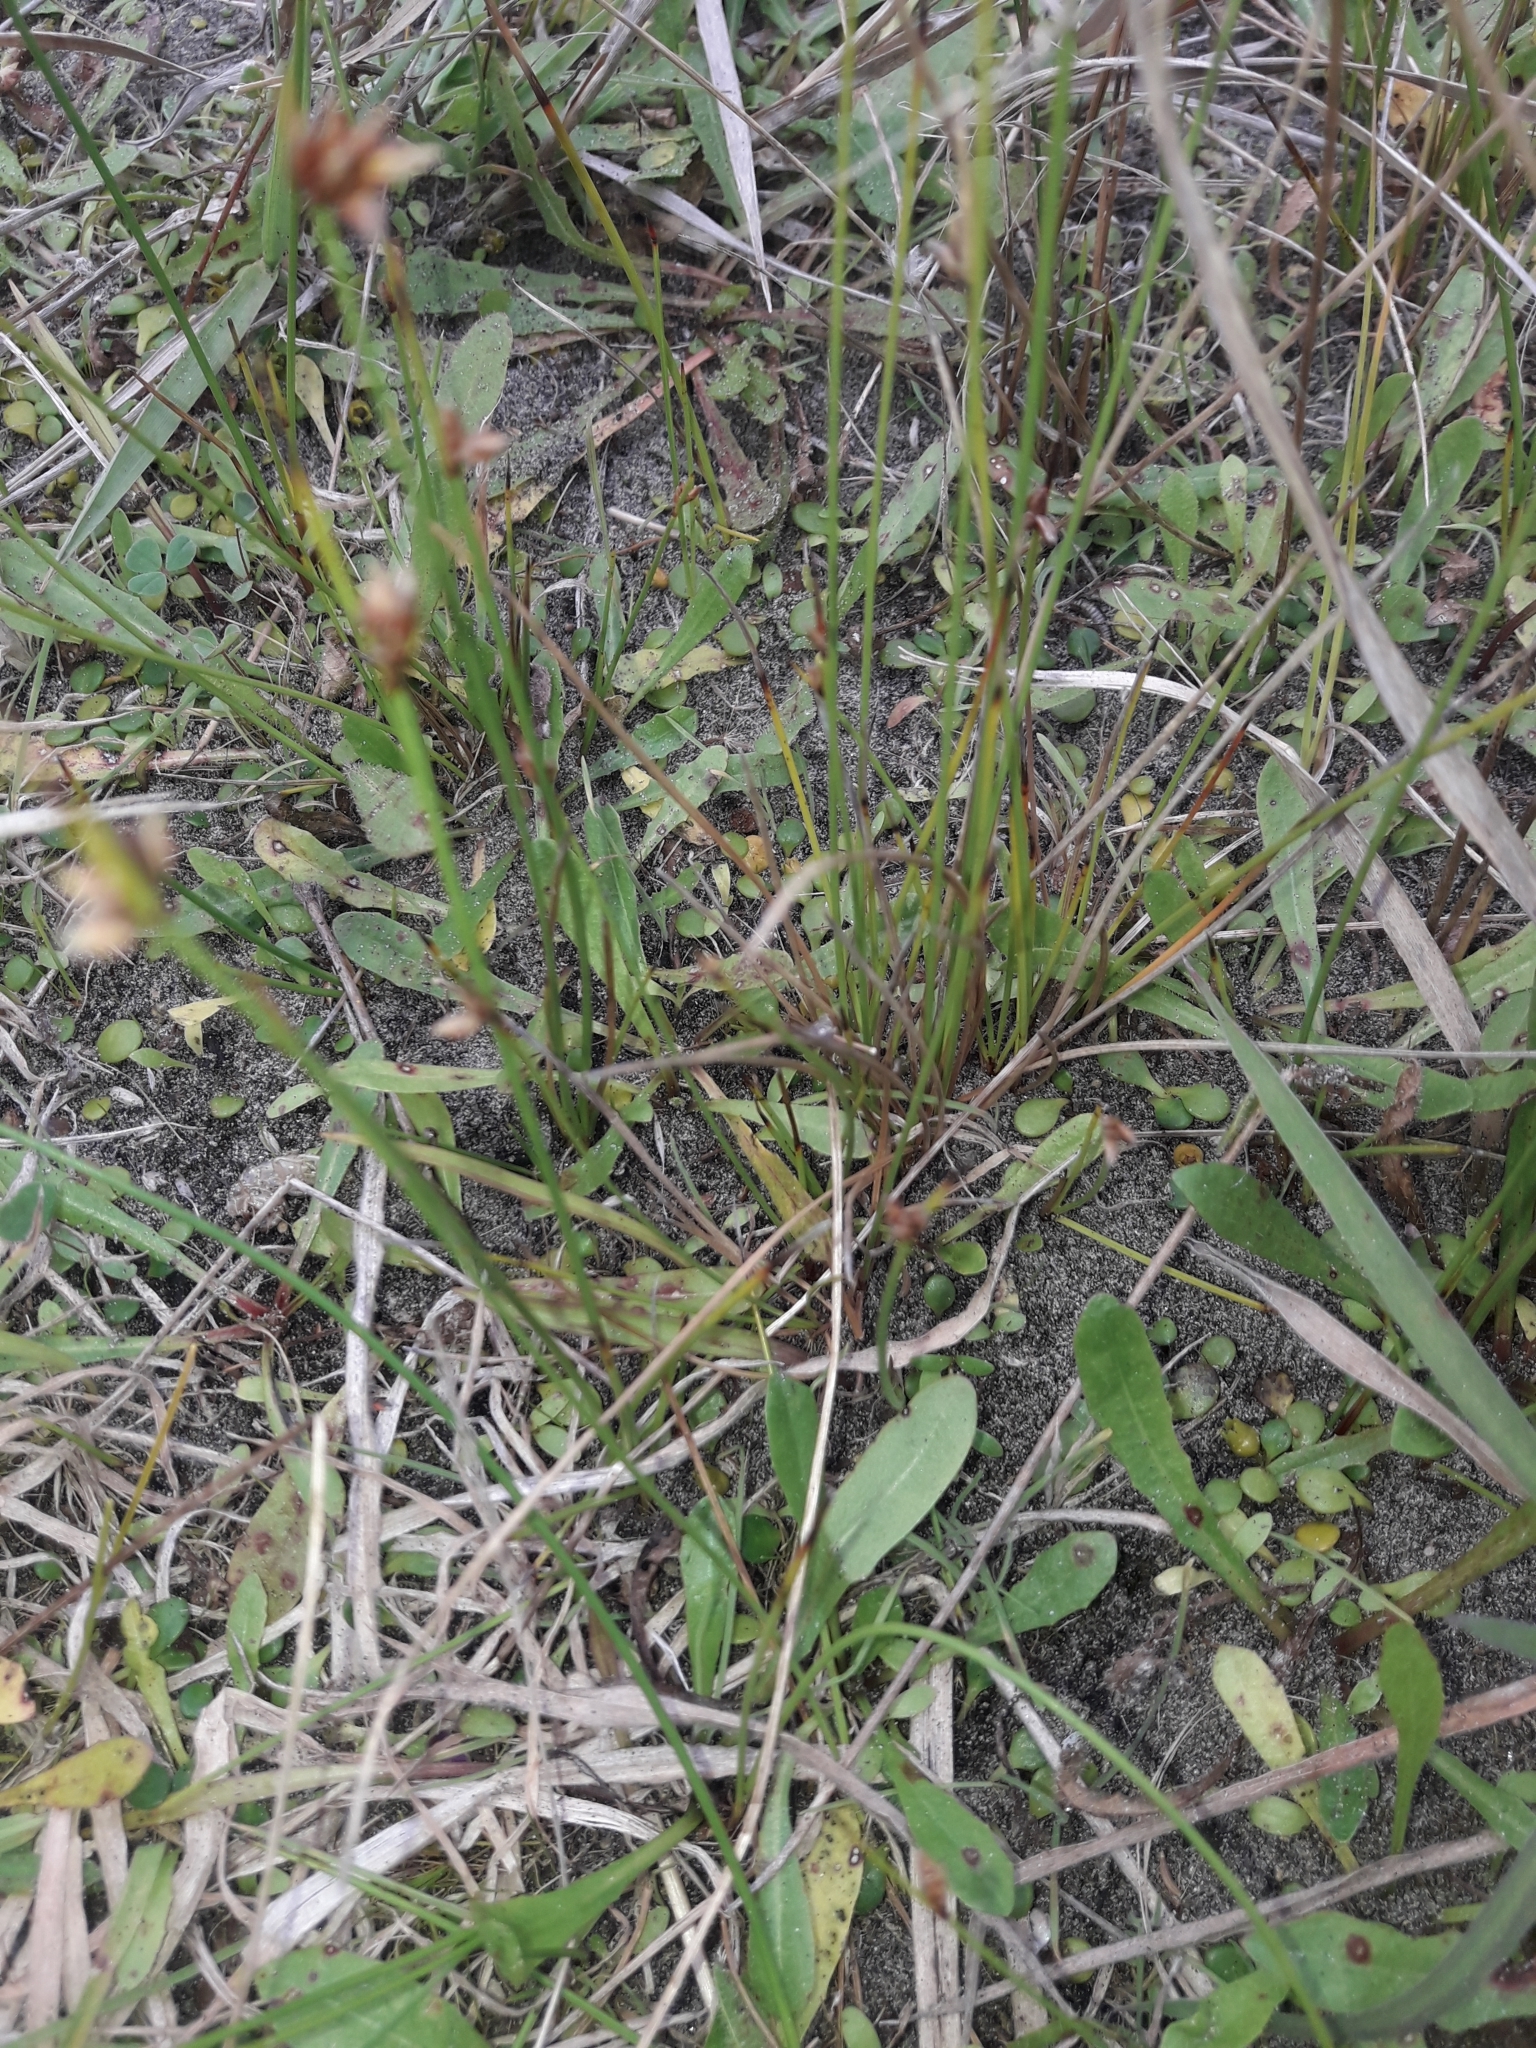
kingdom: Plantae
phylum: Tracheophyta
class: Liliopsida
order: Poales
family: Cyperaceae
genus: Schoenus
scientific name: Schoenus nitens
